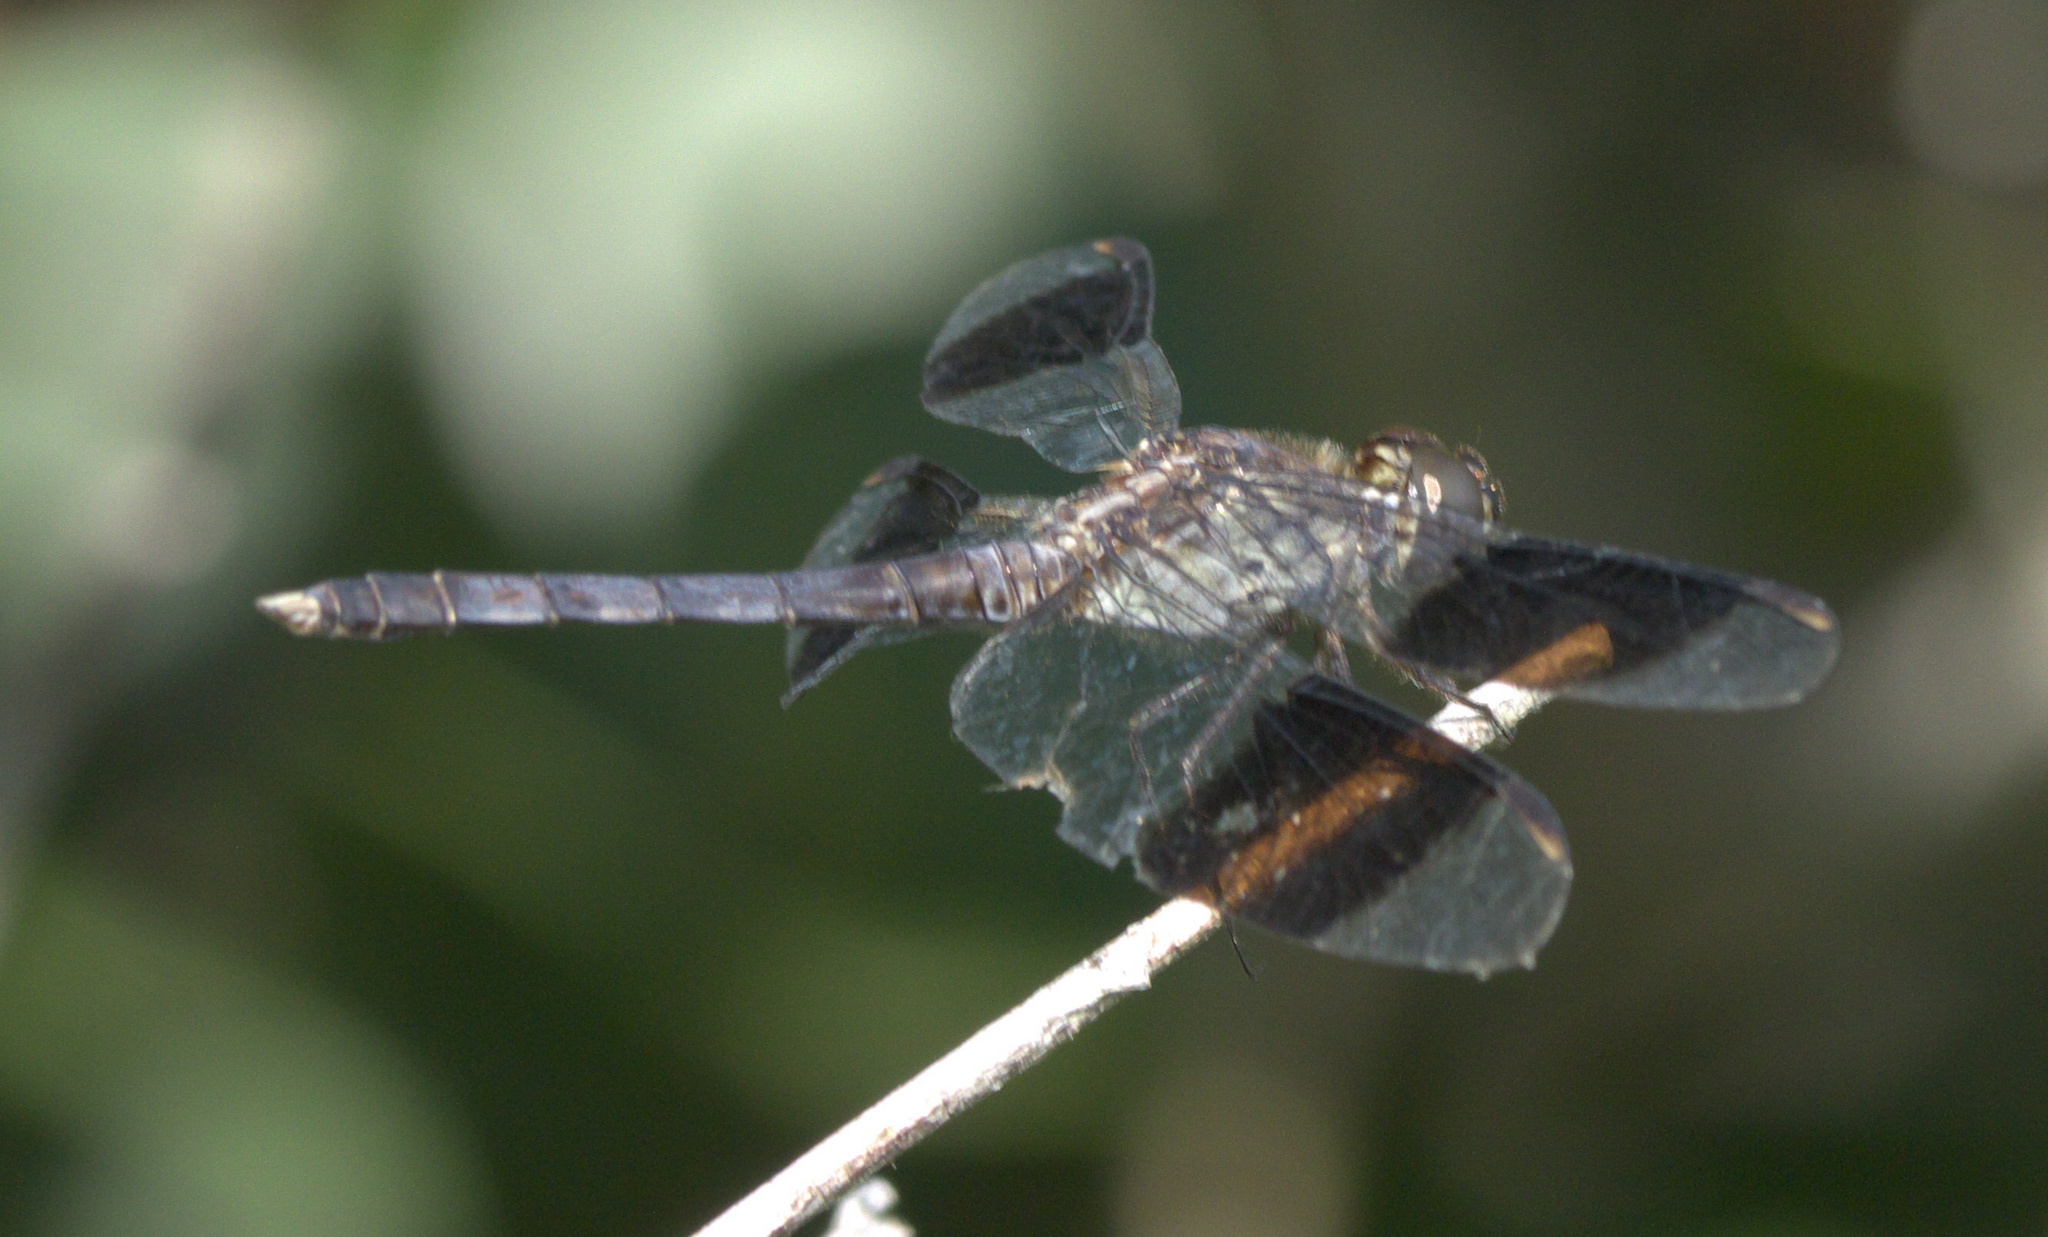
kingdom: Animalia
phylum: Arthropoda
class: Insecta
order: Odonata
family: Libellulidae
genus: Erythrodiplax
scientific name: Erythrodiplax umbrata
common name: Band-winged dragonlet
